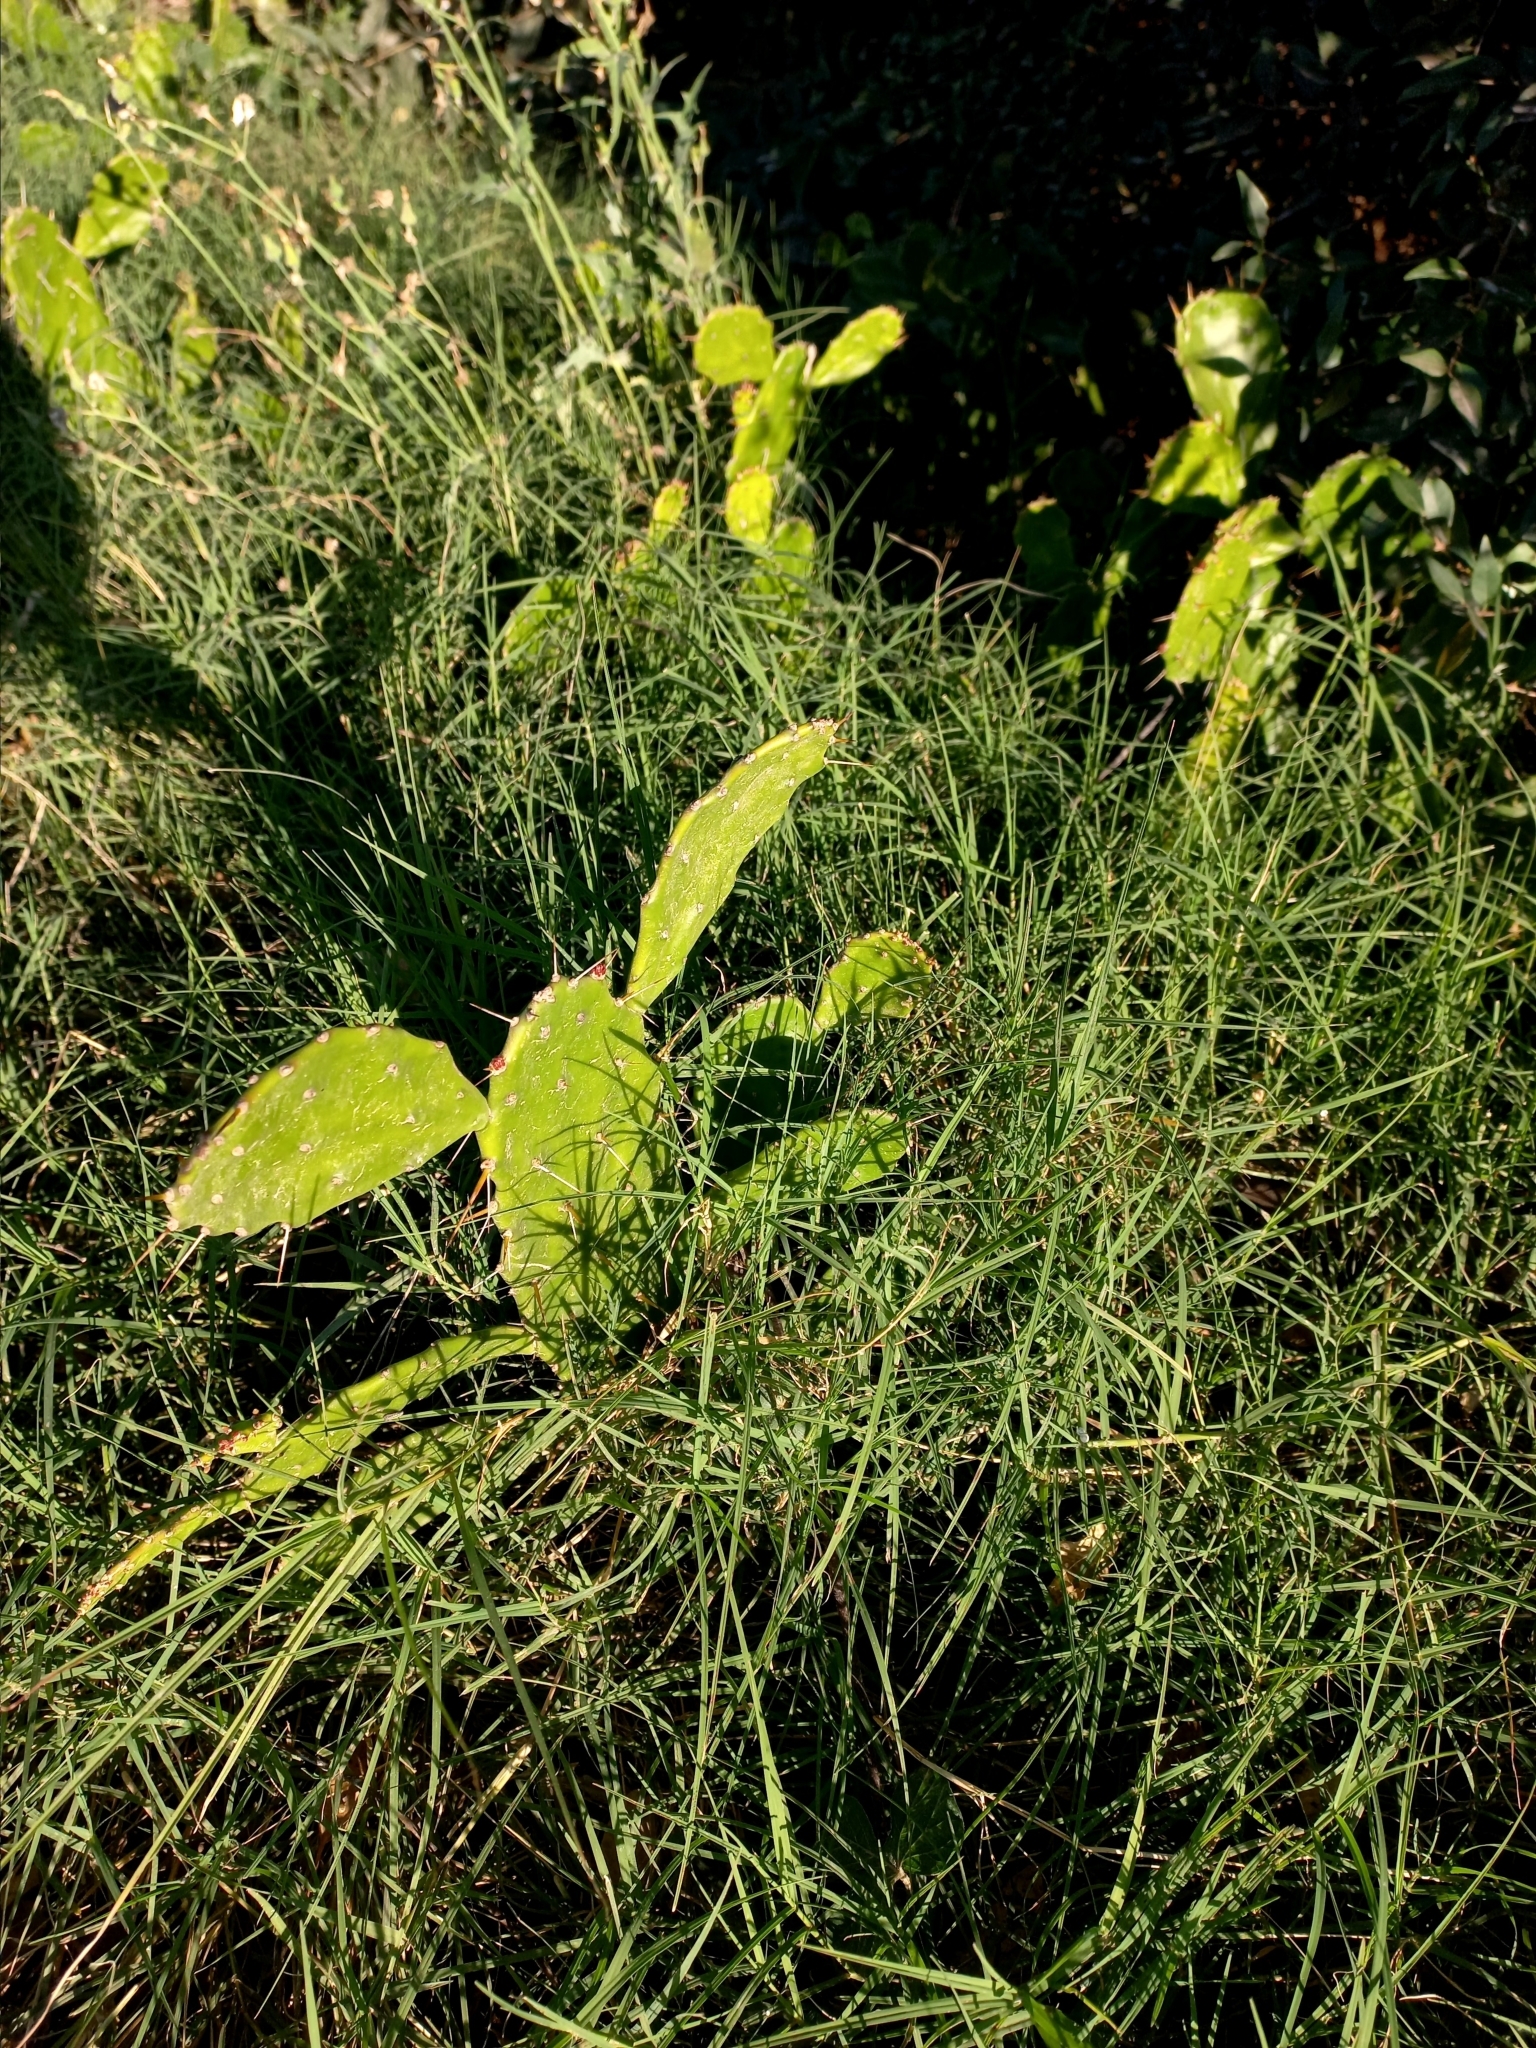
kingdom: Plantae
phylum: Tracheophyta
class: Magnoliopsida
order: Caryophyllales
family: Cactaceae
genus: Opuntia
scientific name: Opuntia monacantha
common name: Common pricklypear
